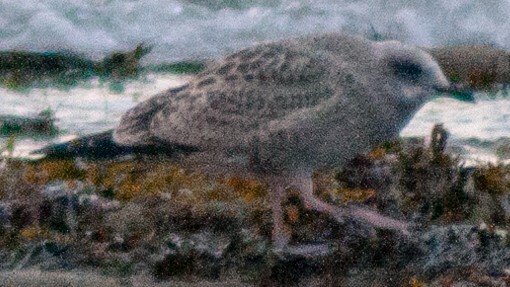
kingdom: Animalia
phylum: Chordata
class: Aves
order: Charadriiformes
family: Laridae
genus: Larus
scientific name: Larus argentatus
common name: Herring gull
